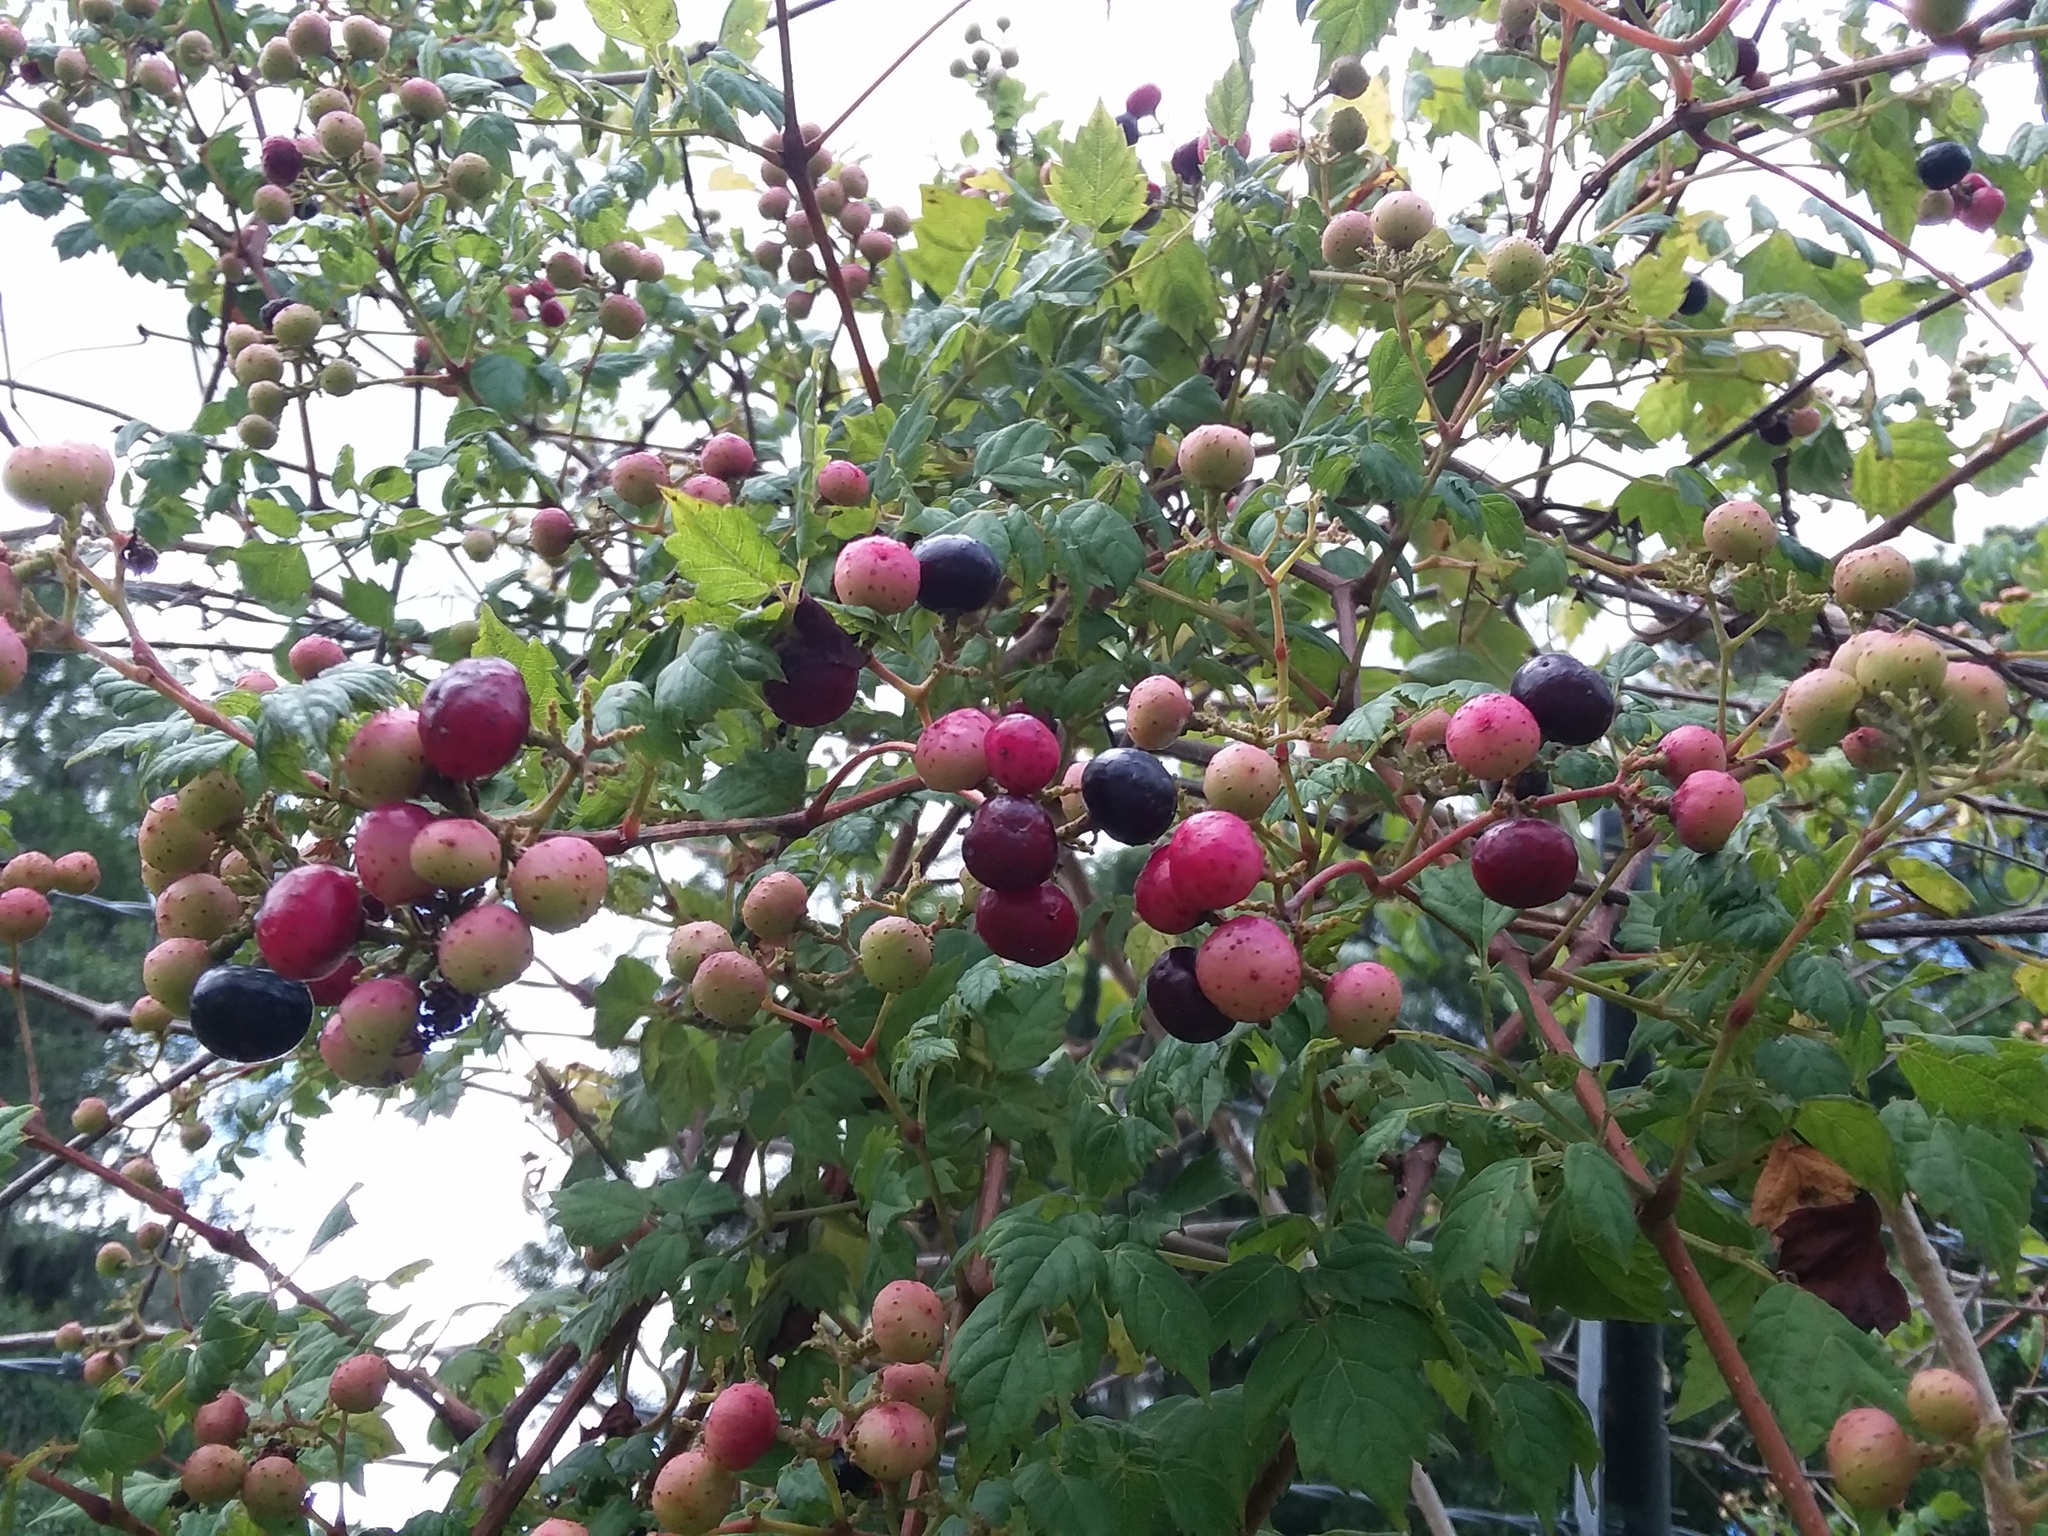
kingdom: Plantae
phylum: Tracheophyta
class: Magnoliopsida
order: Vitales
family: Vitaceae
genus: Nekemias
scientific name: Nekemias arborea
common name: Peppervine
